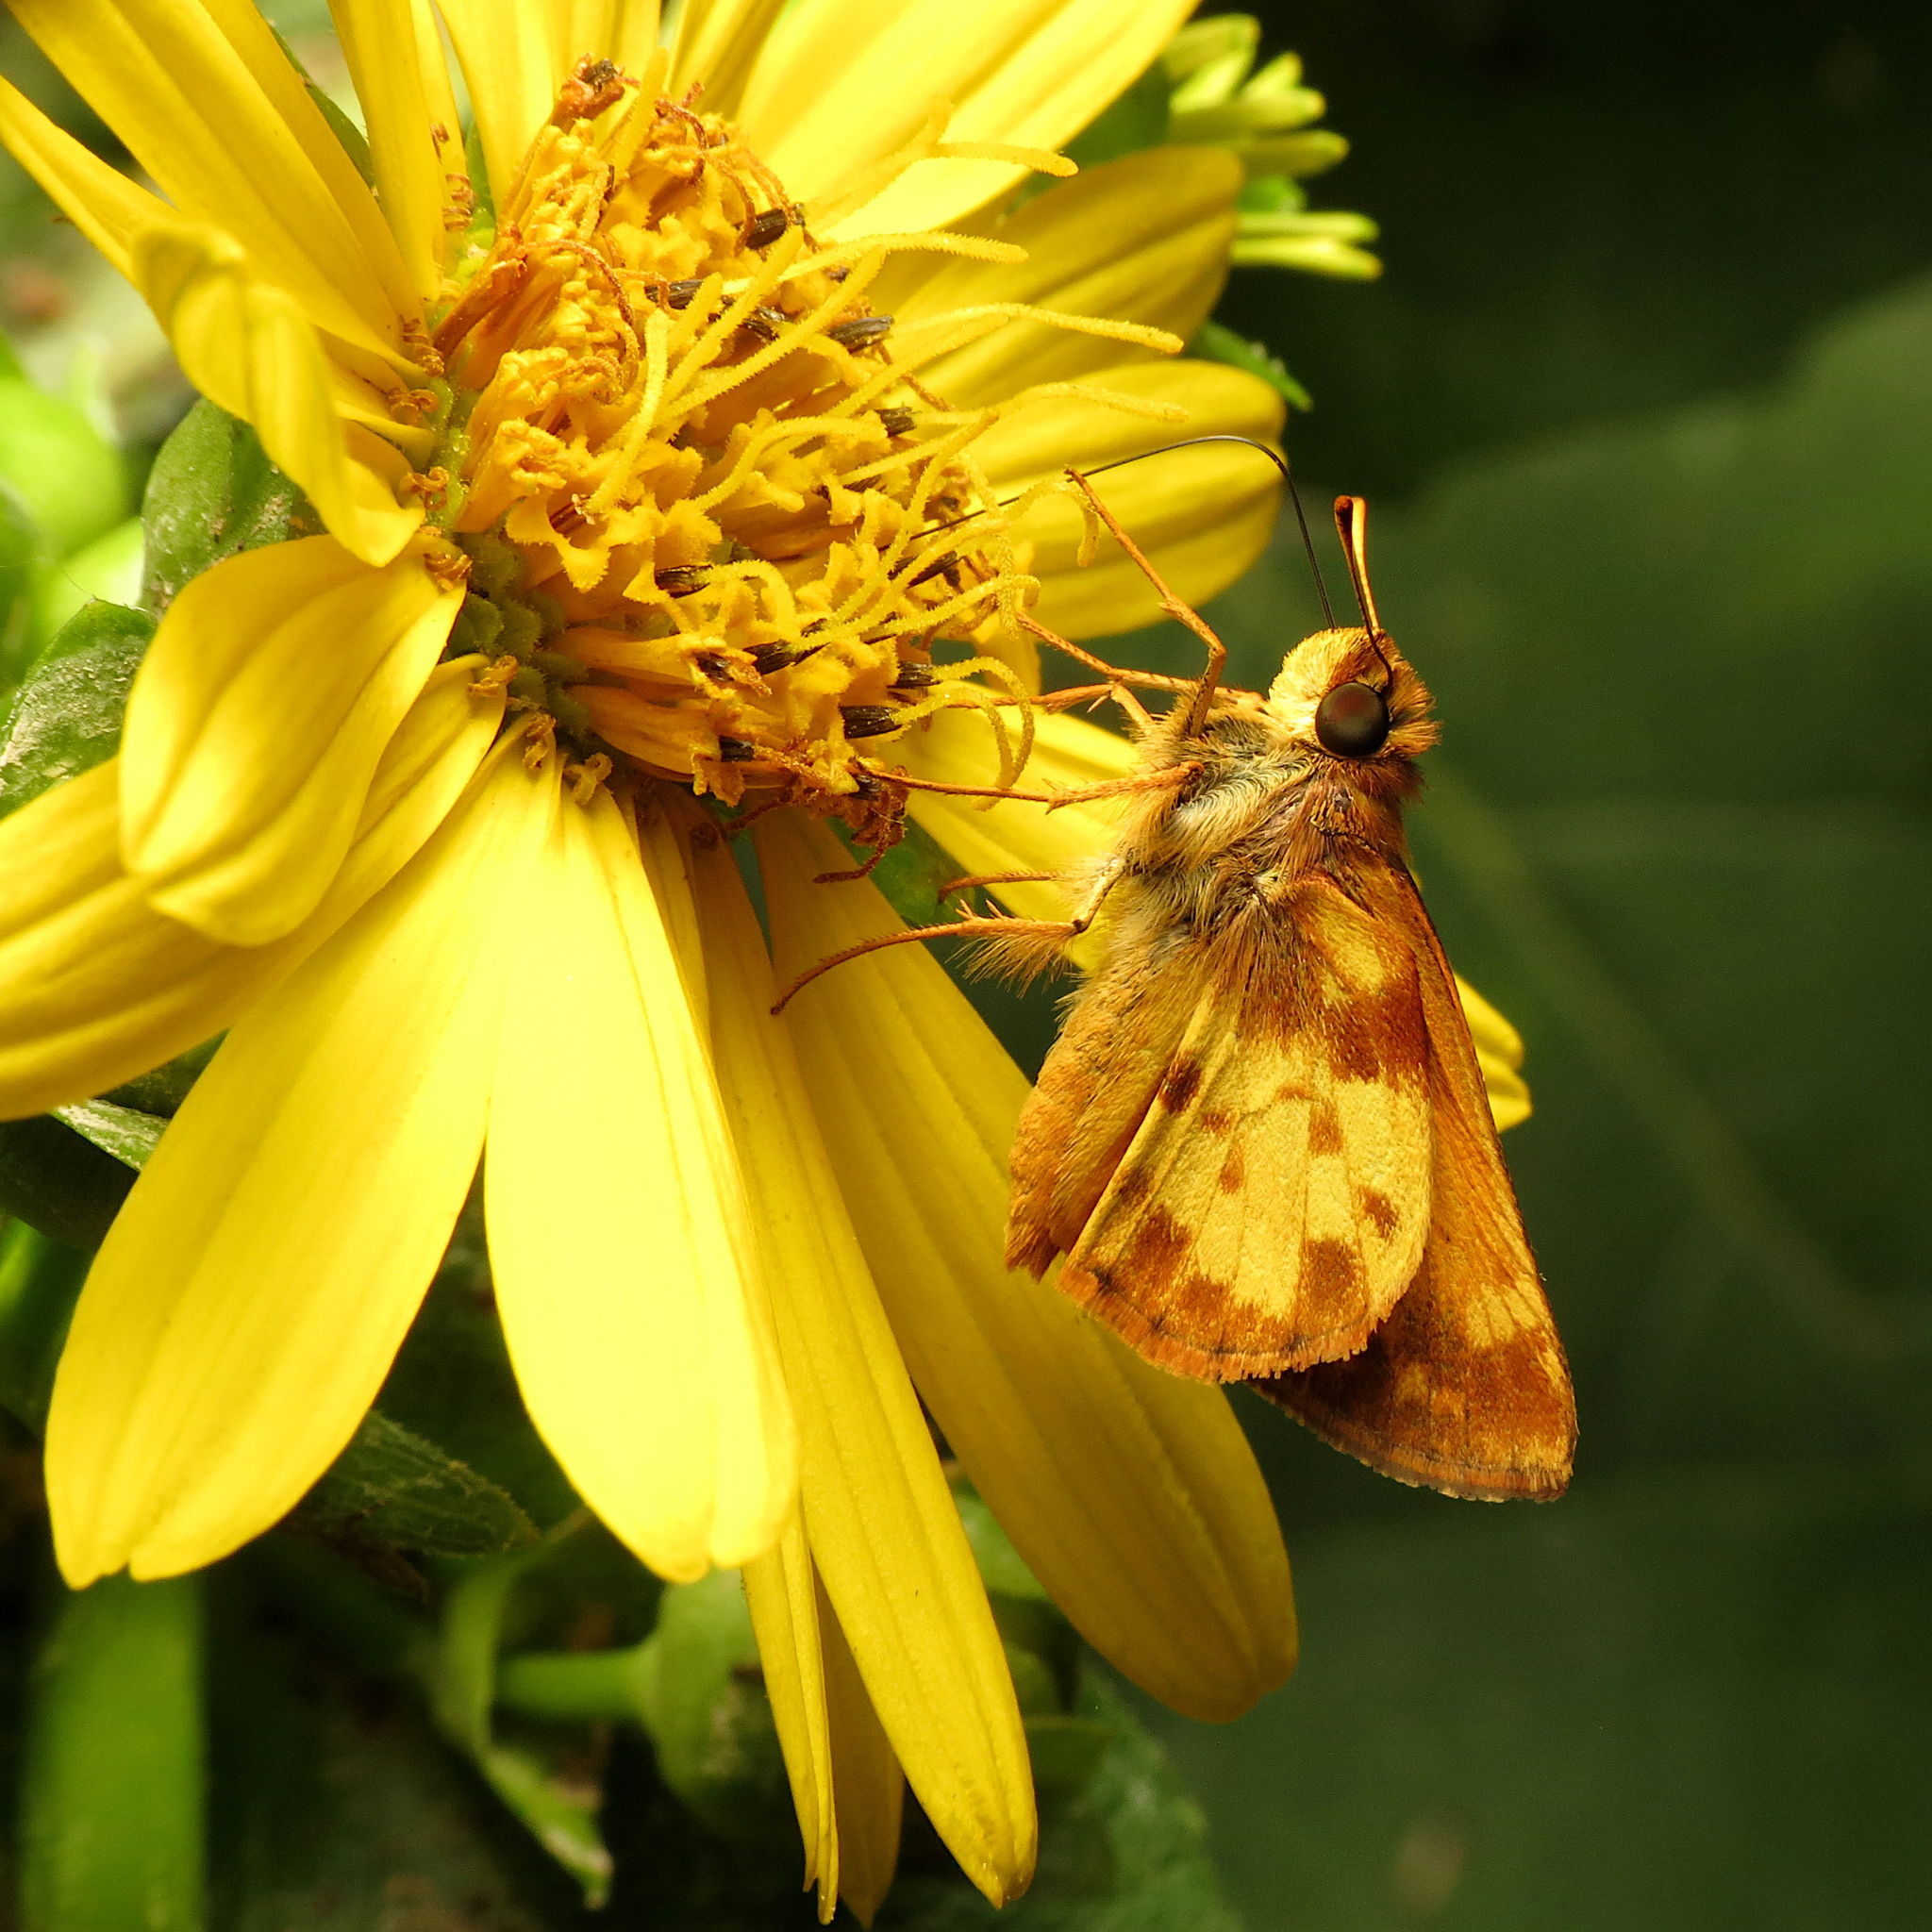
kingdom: Animalia
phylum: Arthropoda
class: Insecta
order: Lepidoptera
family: Hesperiidae
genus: Lon
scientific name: Lon zabulon
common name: Zabulon skipper
